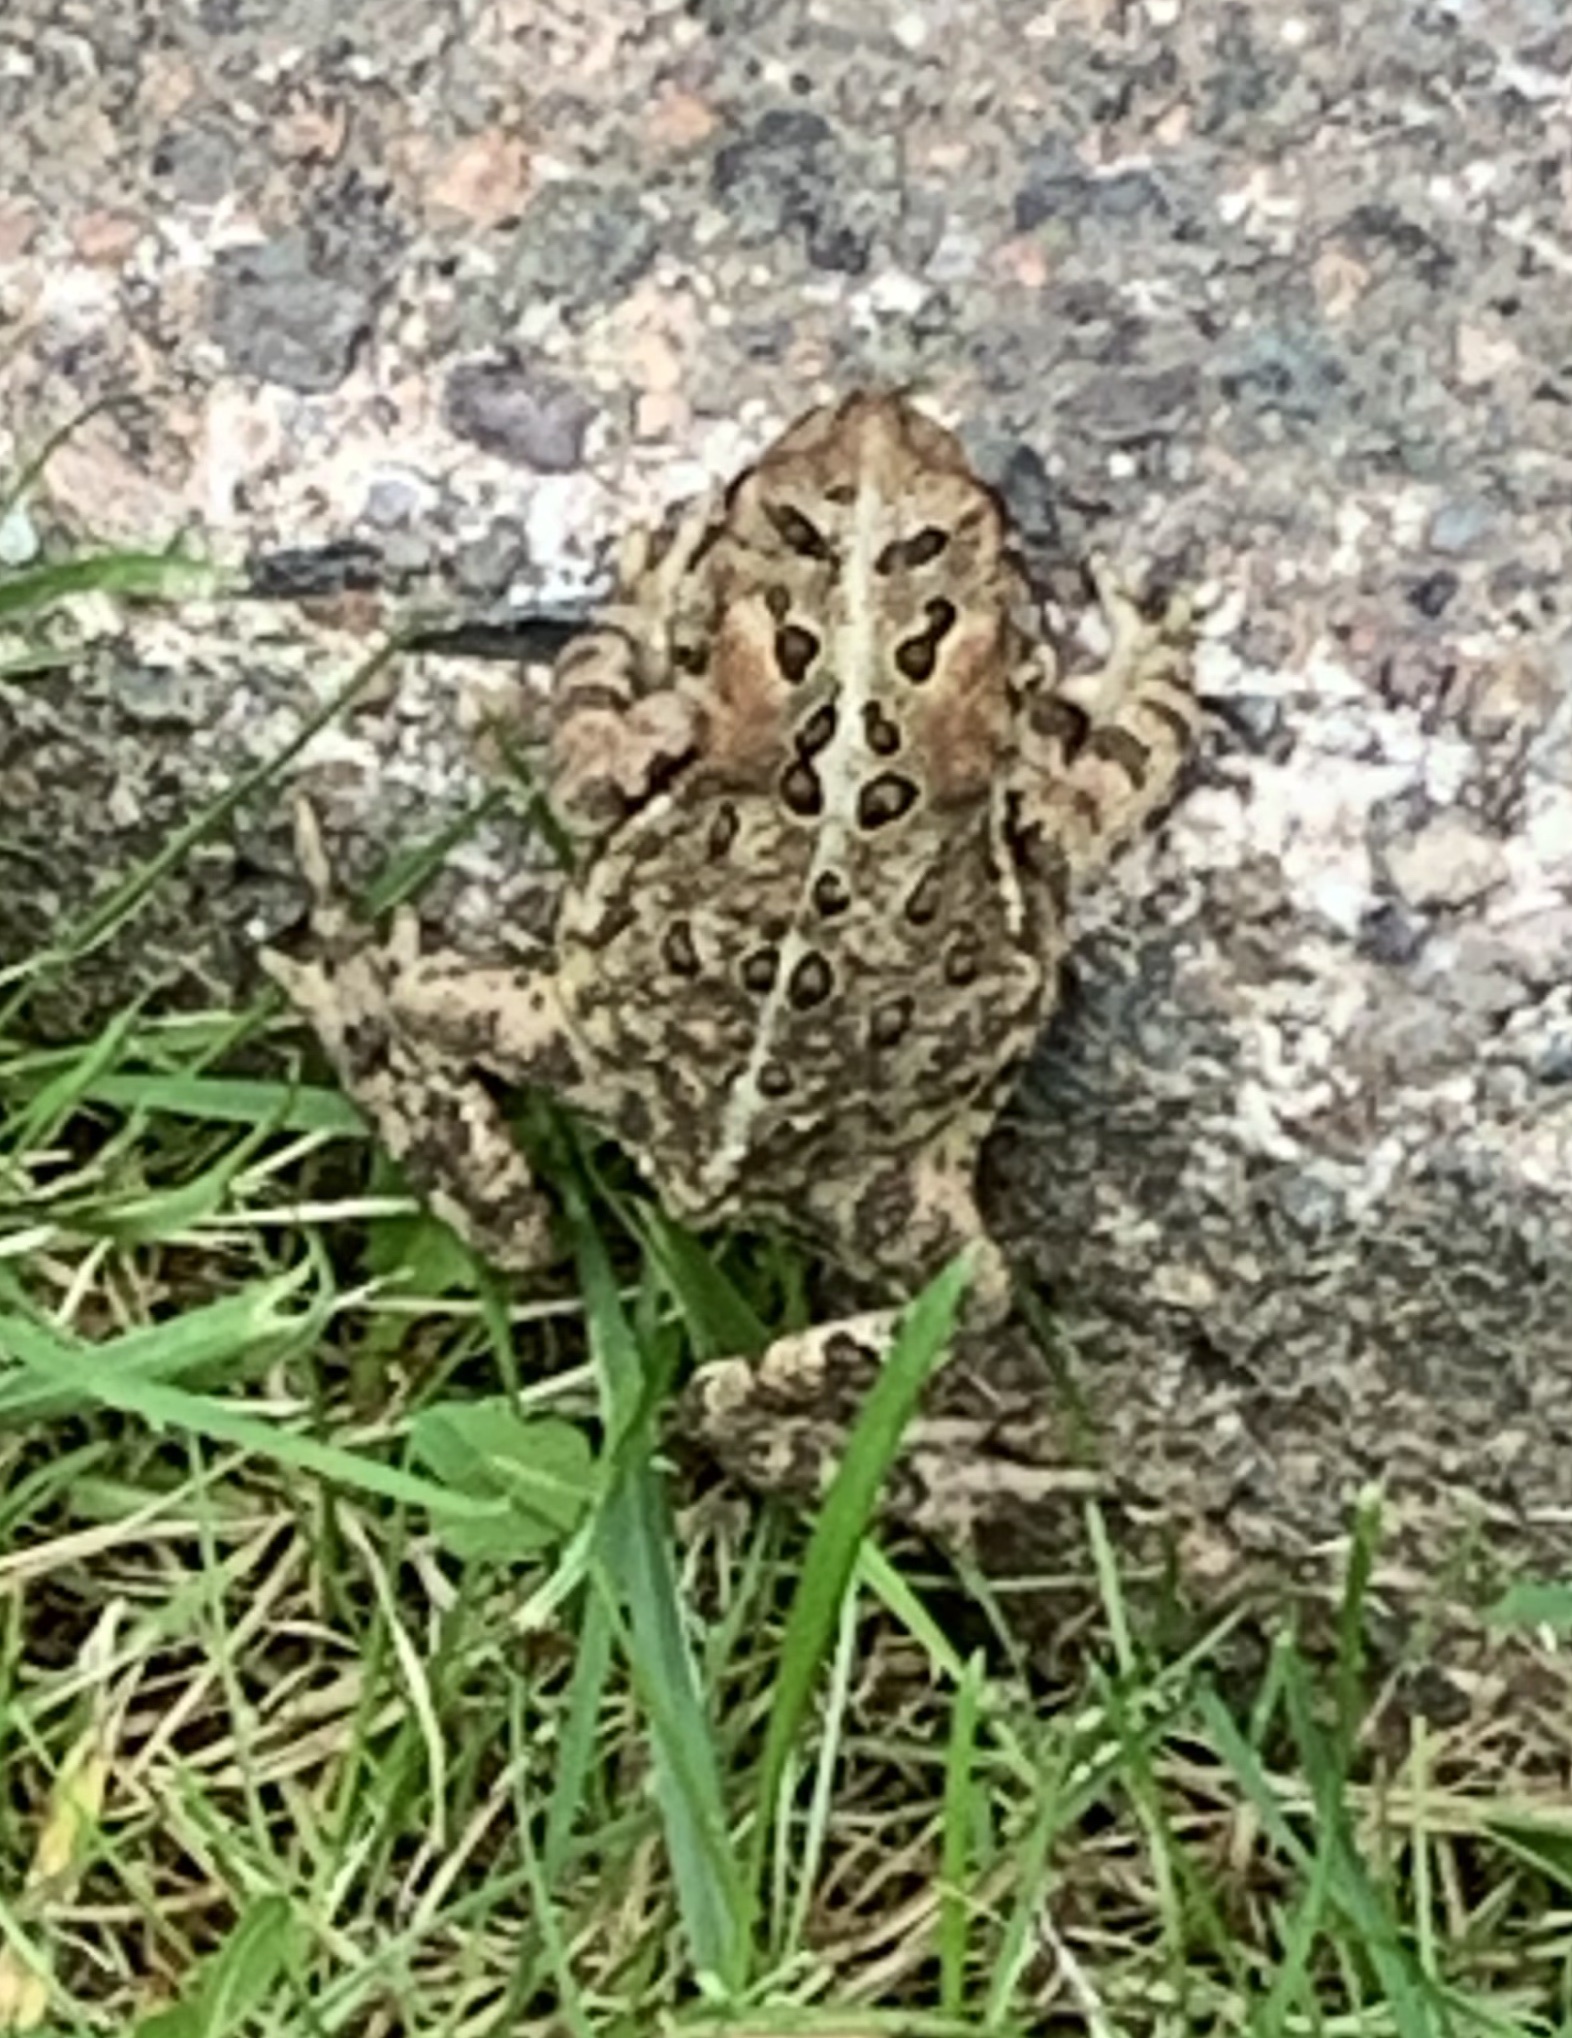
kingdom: Animalia
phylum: Chordata
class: Amphibia
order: Anura
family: Bufonidae
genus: Anaxyrus
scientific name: Anaxyrus americanus
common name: American toad
